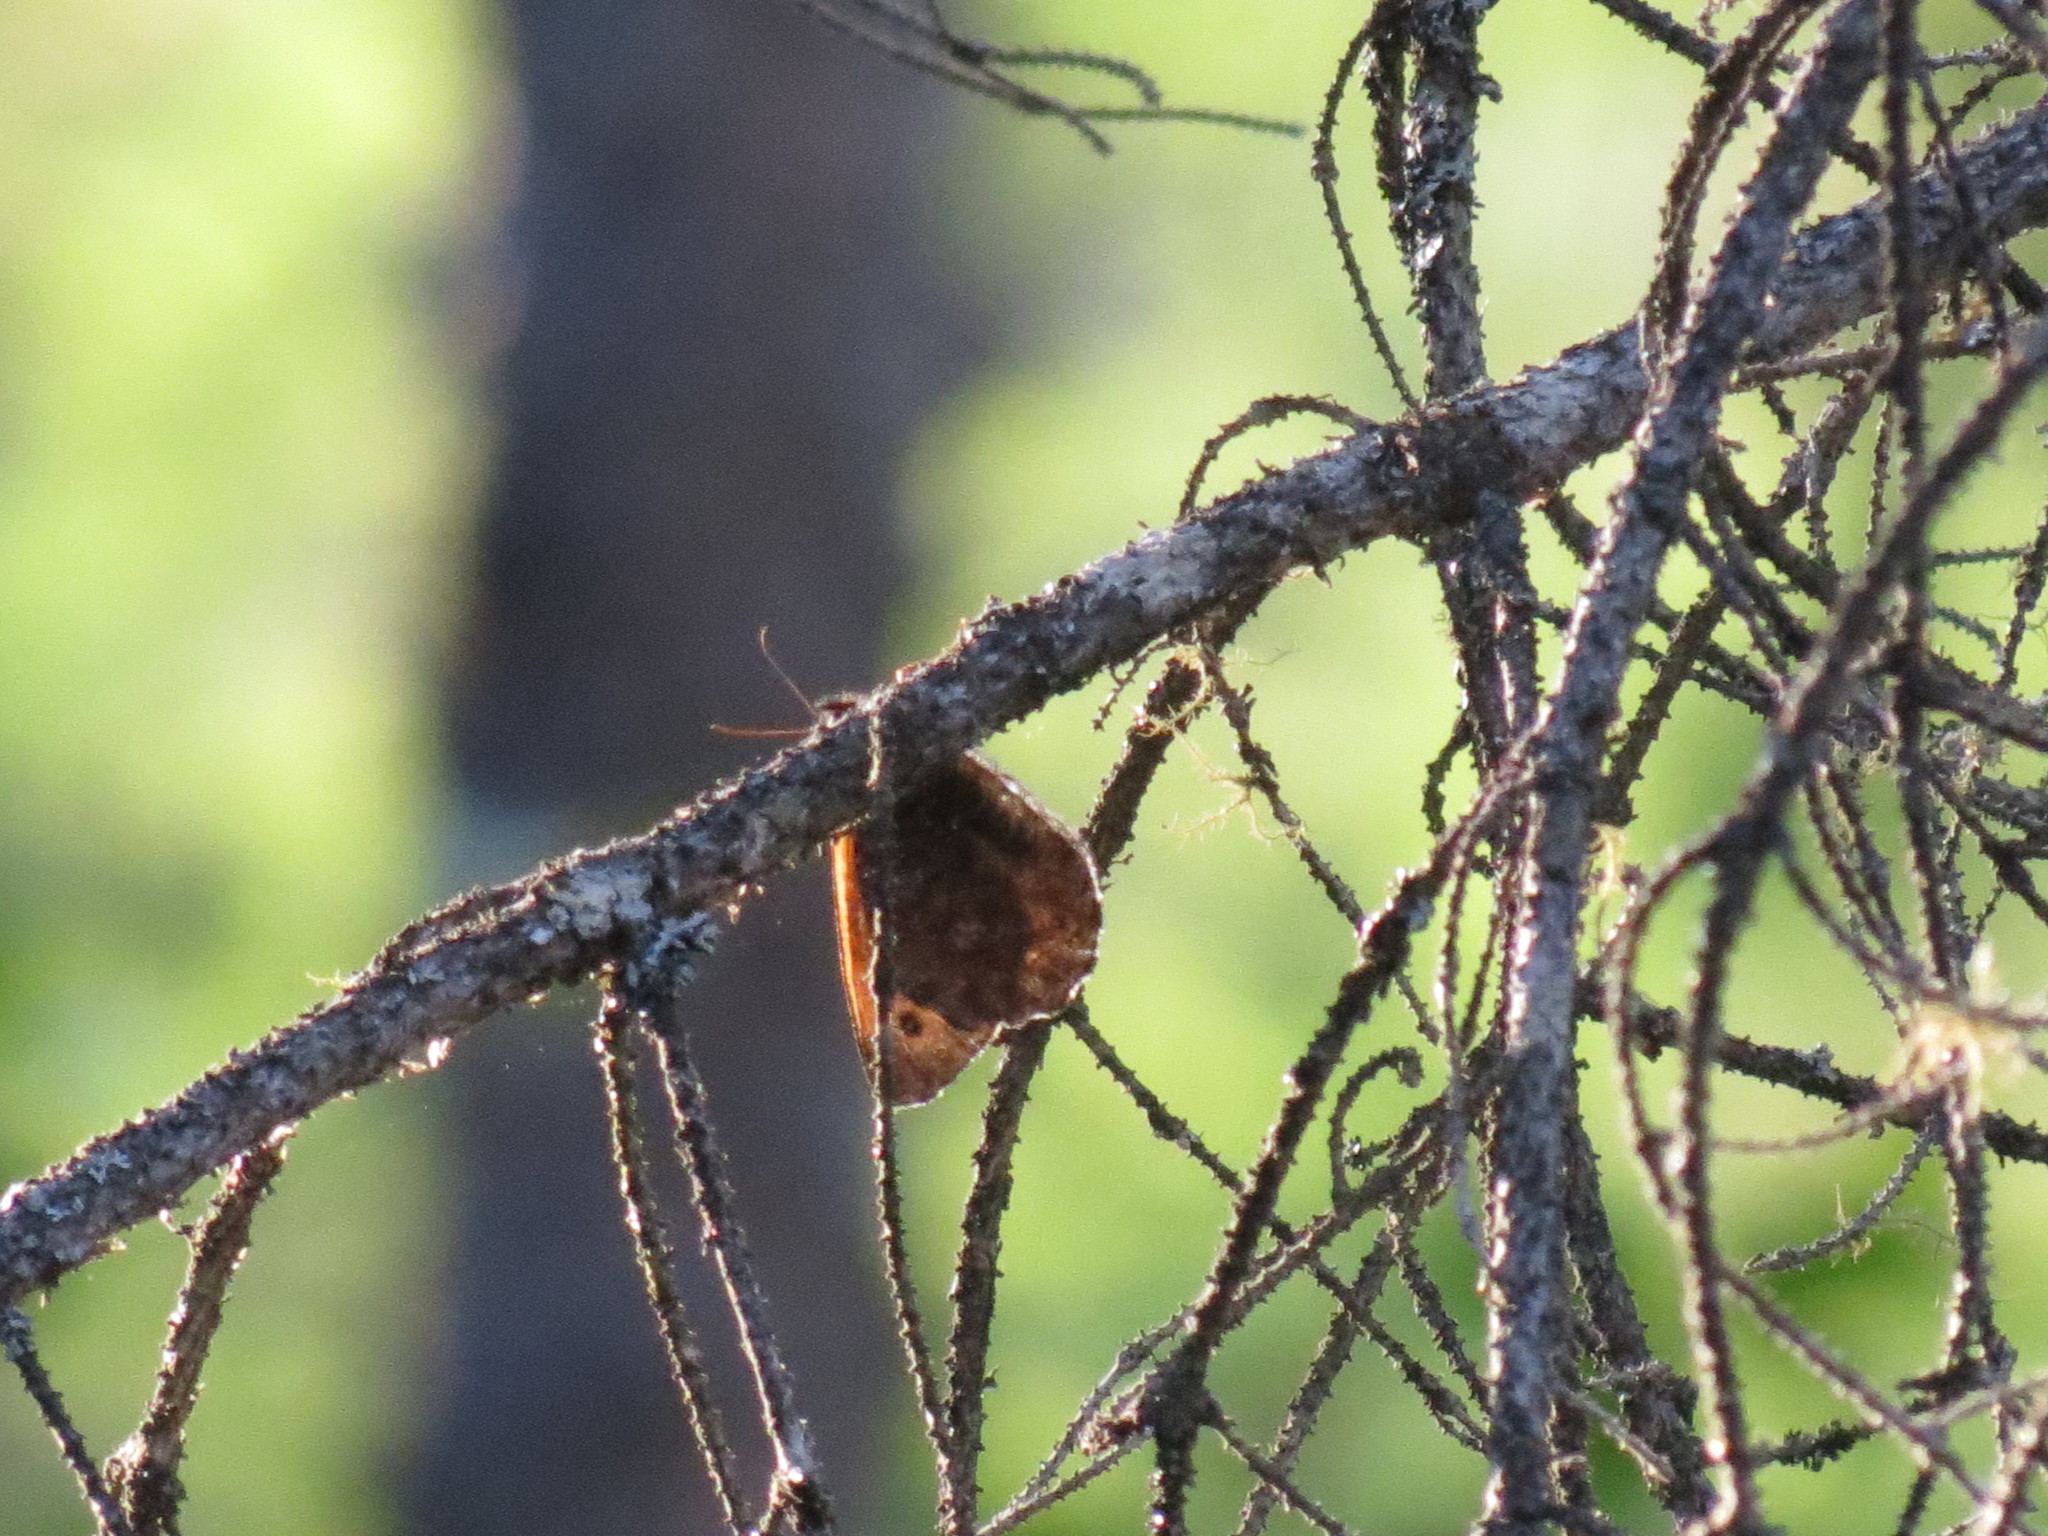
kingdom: Animalia
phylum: Arthropoda
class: Insecta
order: Lepidoptera
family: Nymphalidae
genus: Oeneis
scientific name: Oeneis jutta
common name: Baltic grayling
